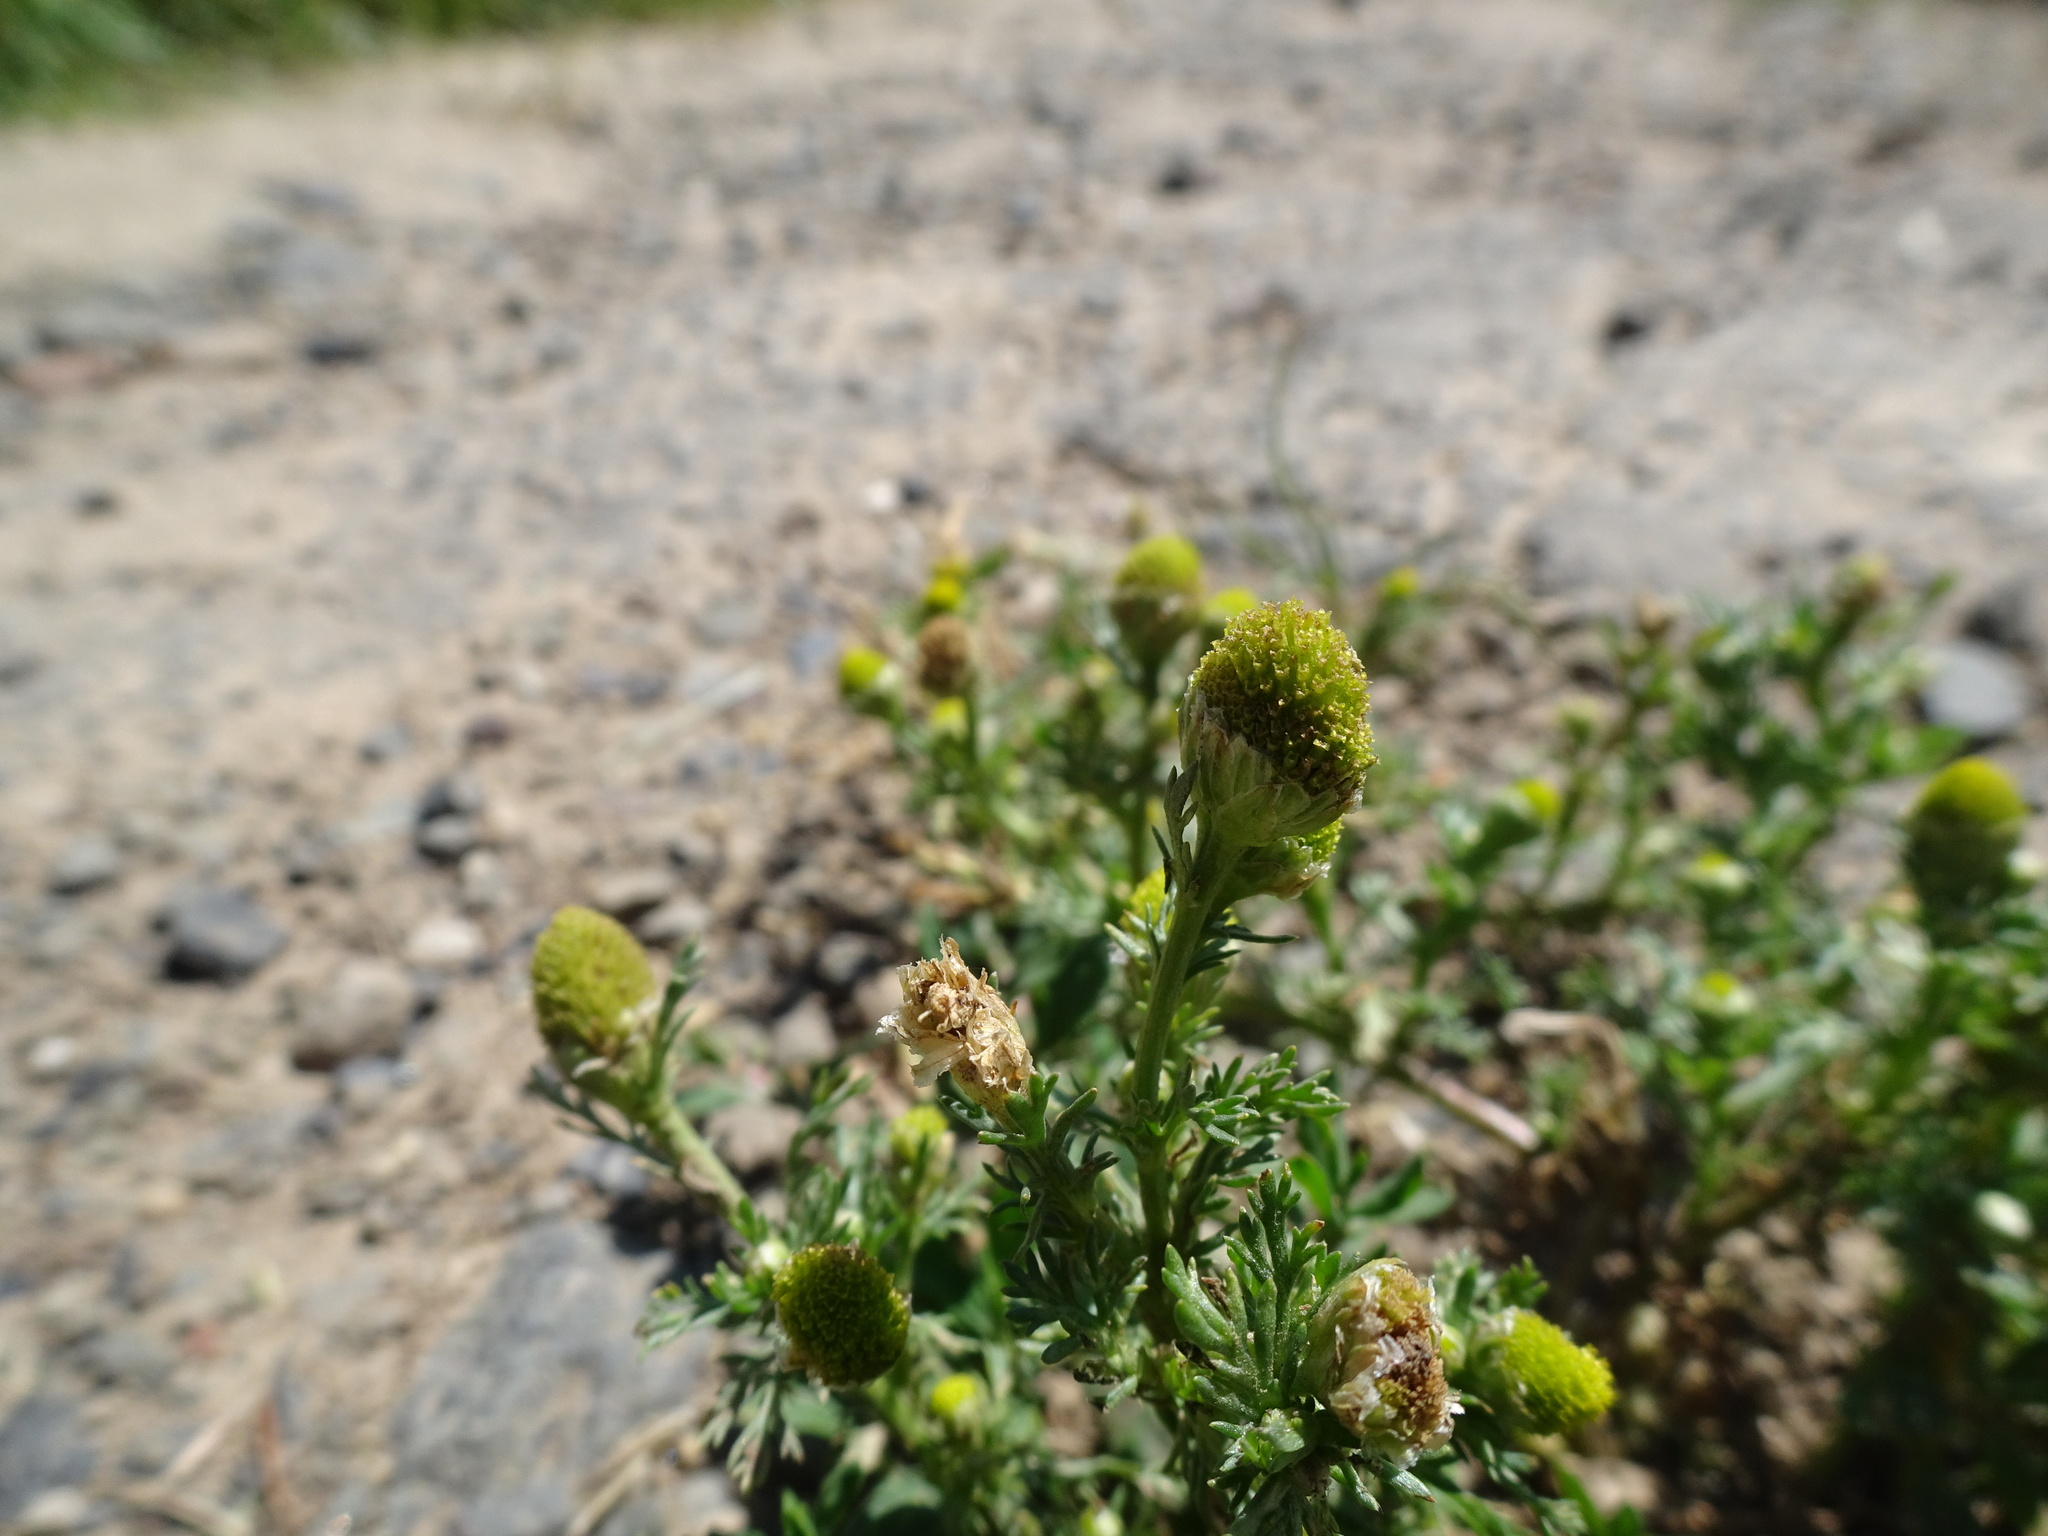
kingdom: Plantae
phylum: Tracheophyta
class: Magnoliopsida
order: Asterales
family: Asteraceae
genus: Matricaria
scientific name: Matricaria discoidea
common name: Disc mayweed
